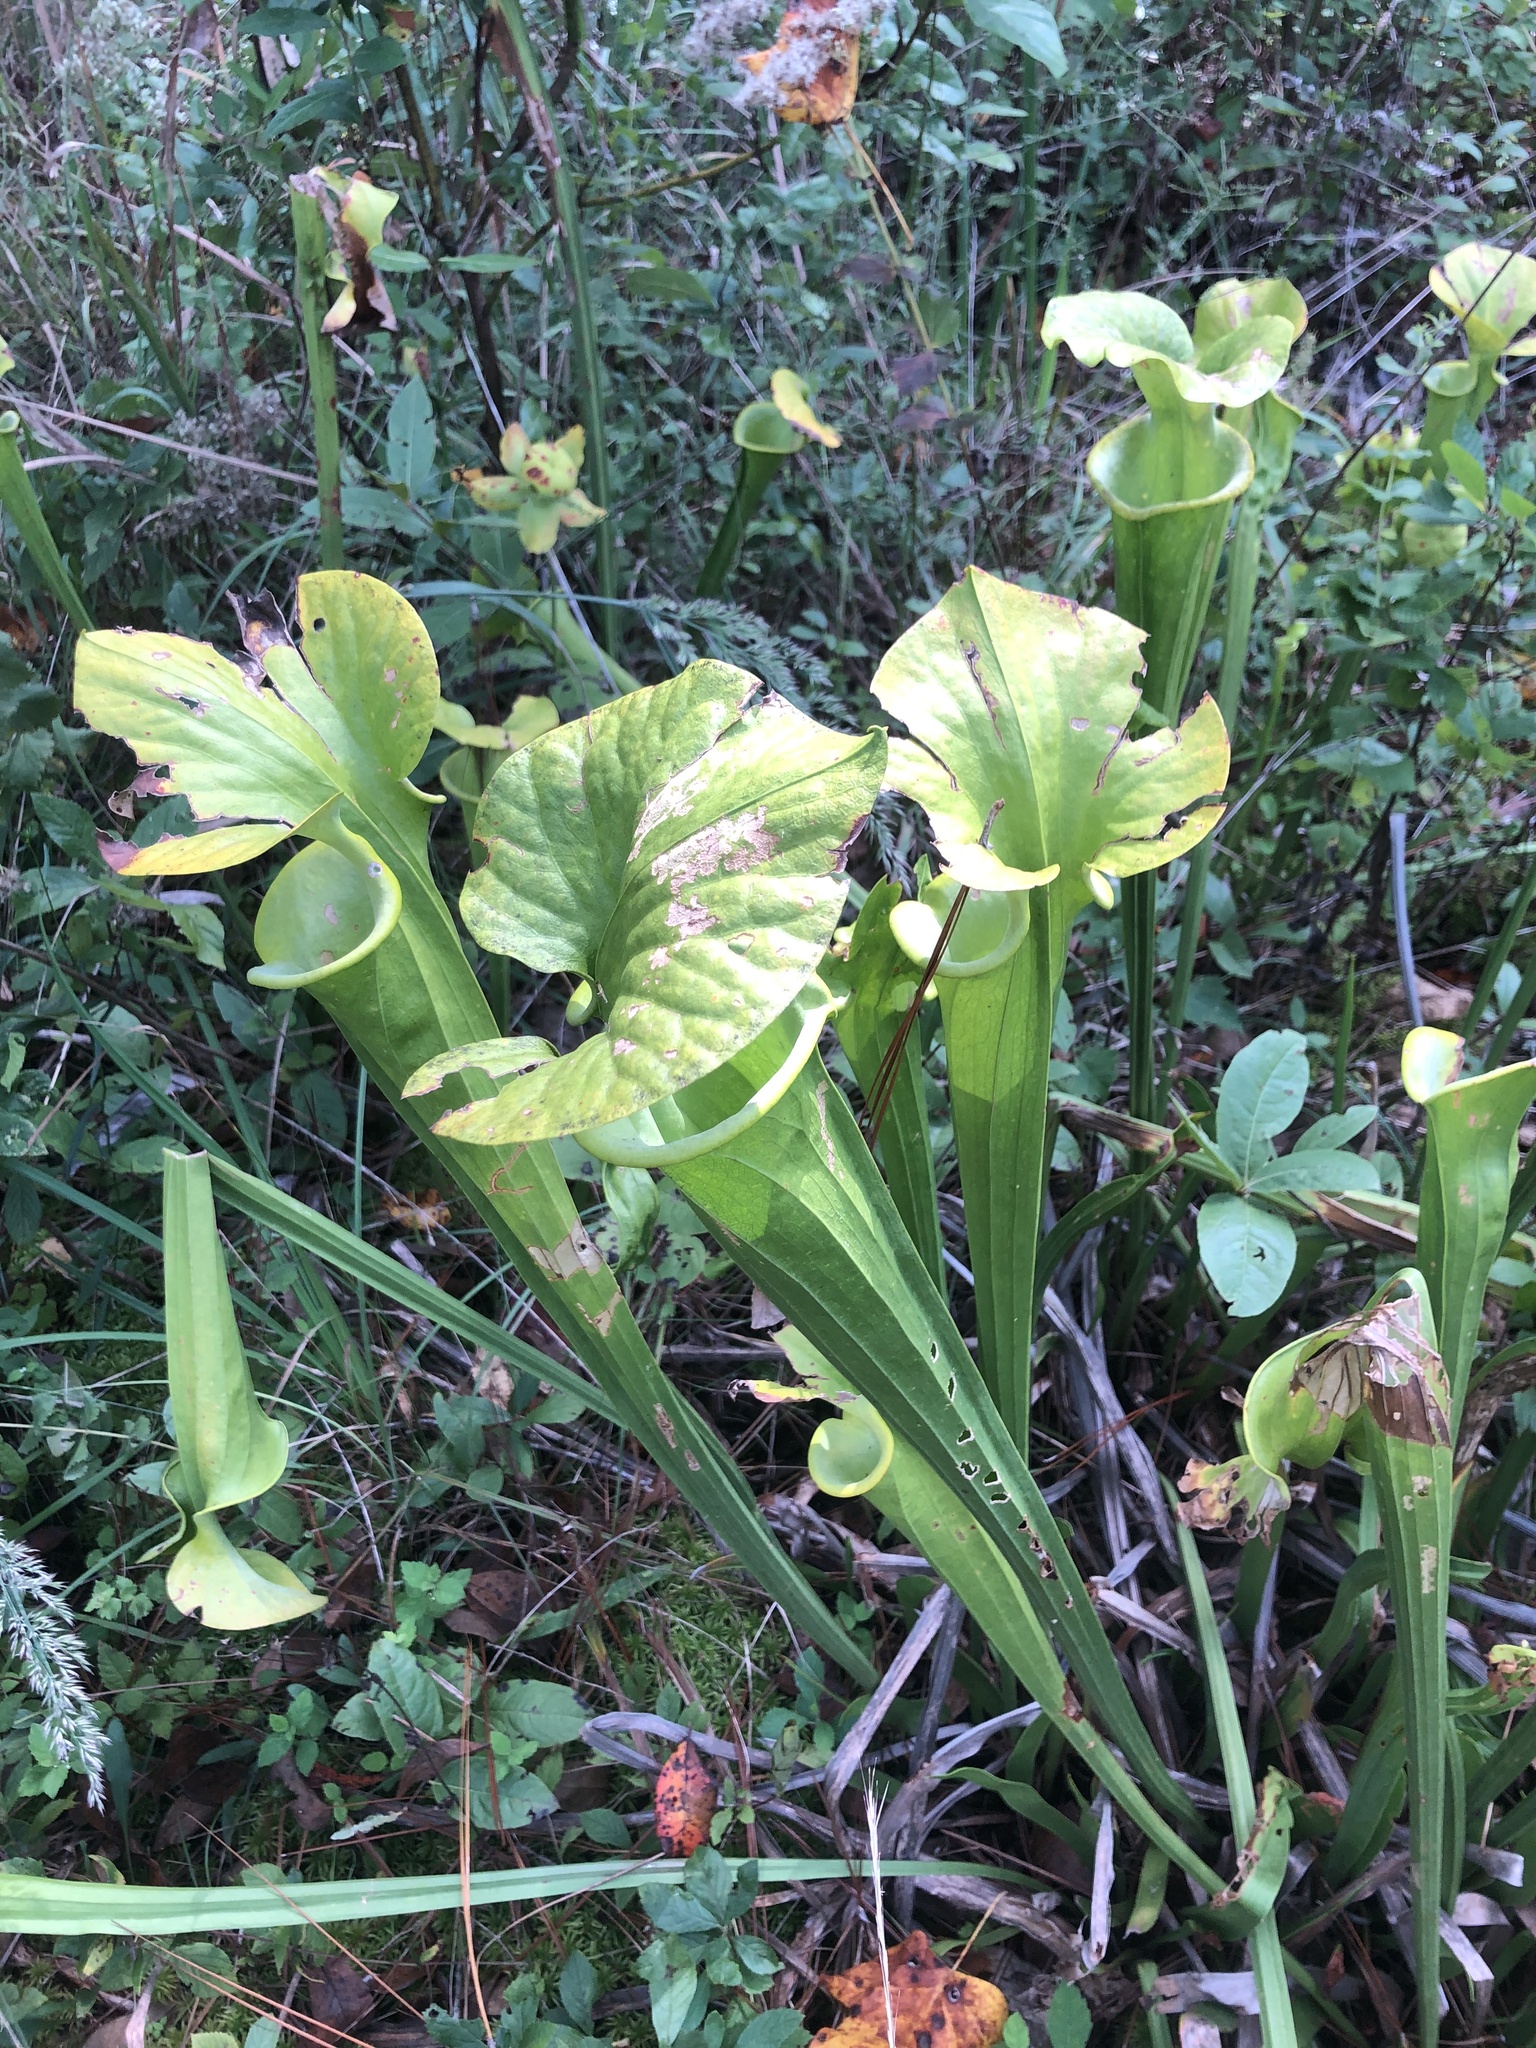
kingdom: Plantae
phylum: Tracheophyta
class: Magnoliopsida
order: Ericales
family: Sarraceniaceae
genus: Sarracenia
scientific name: Sarracenia flava
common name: Trumpets
